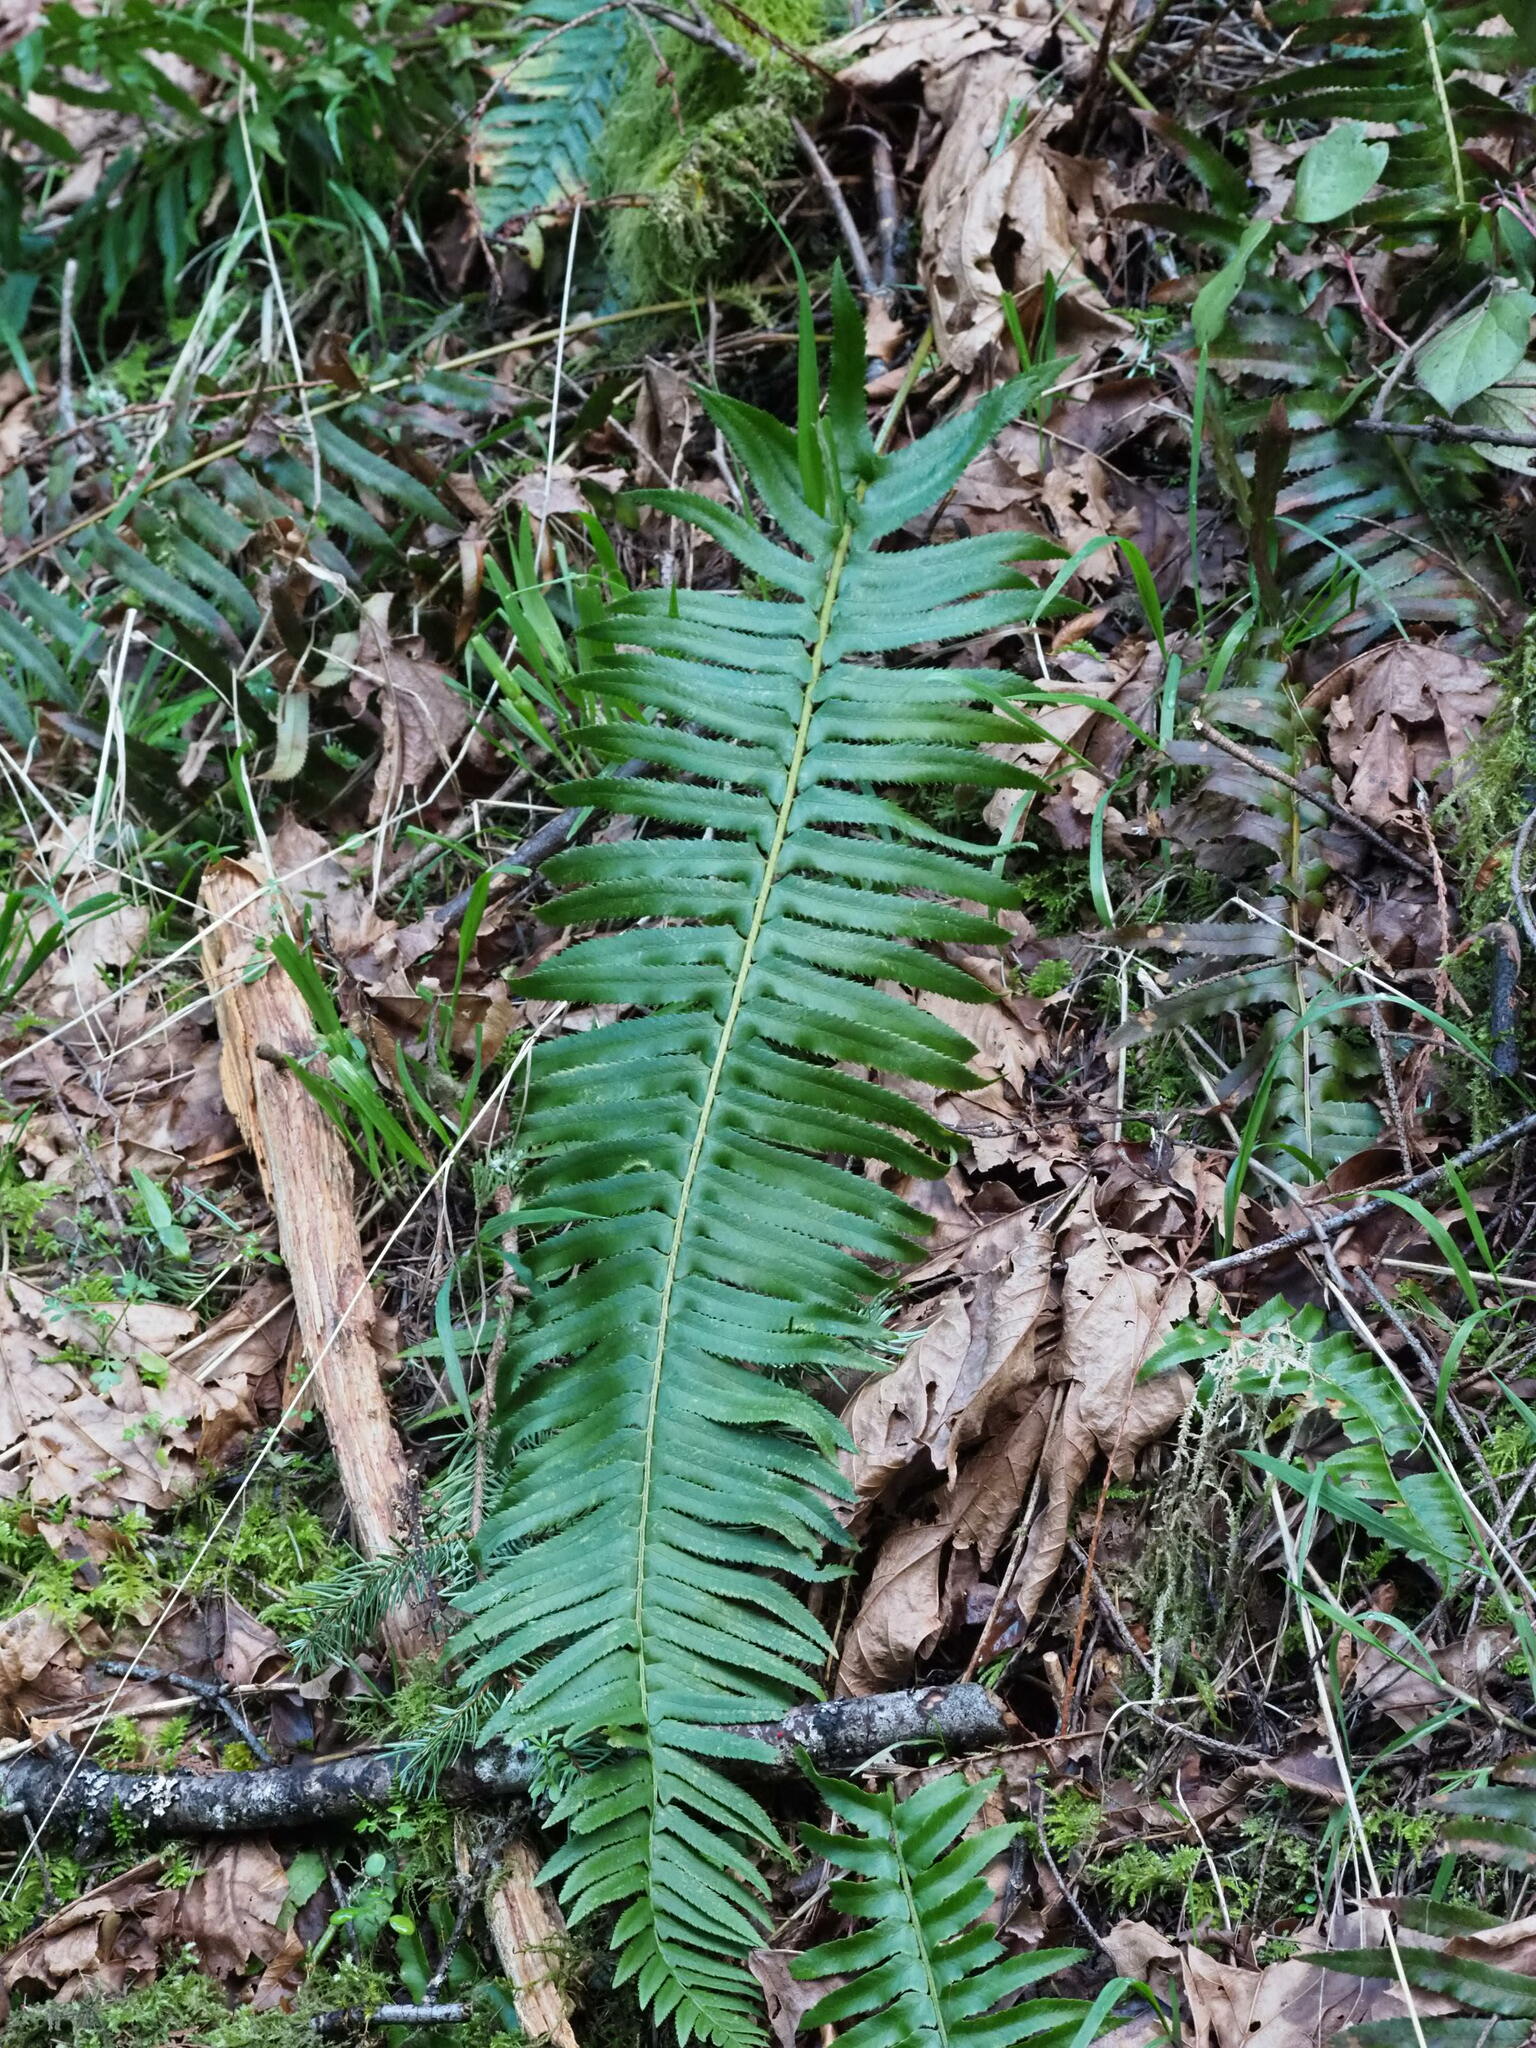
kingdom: Plantae
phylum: Tracheophyta
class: Polypodiopsida
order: Polypodiales
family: Dryopteridaceae
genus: Polystichum
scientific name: Polystichum munitum
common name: Western sword-fern
